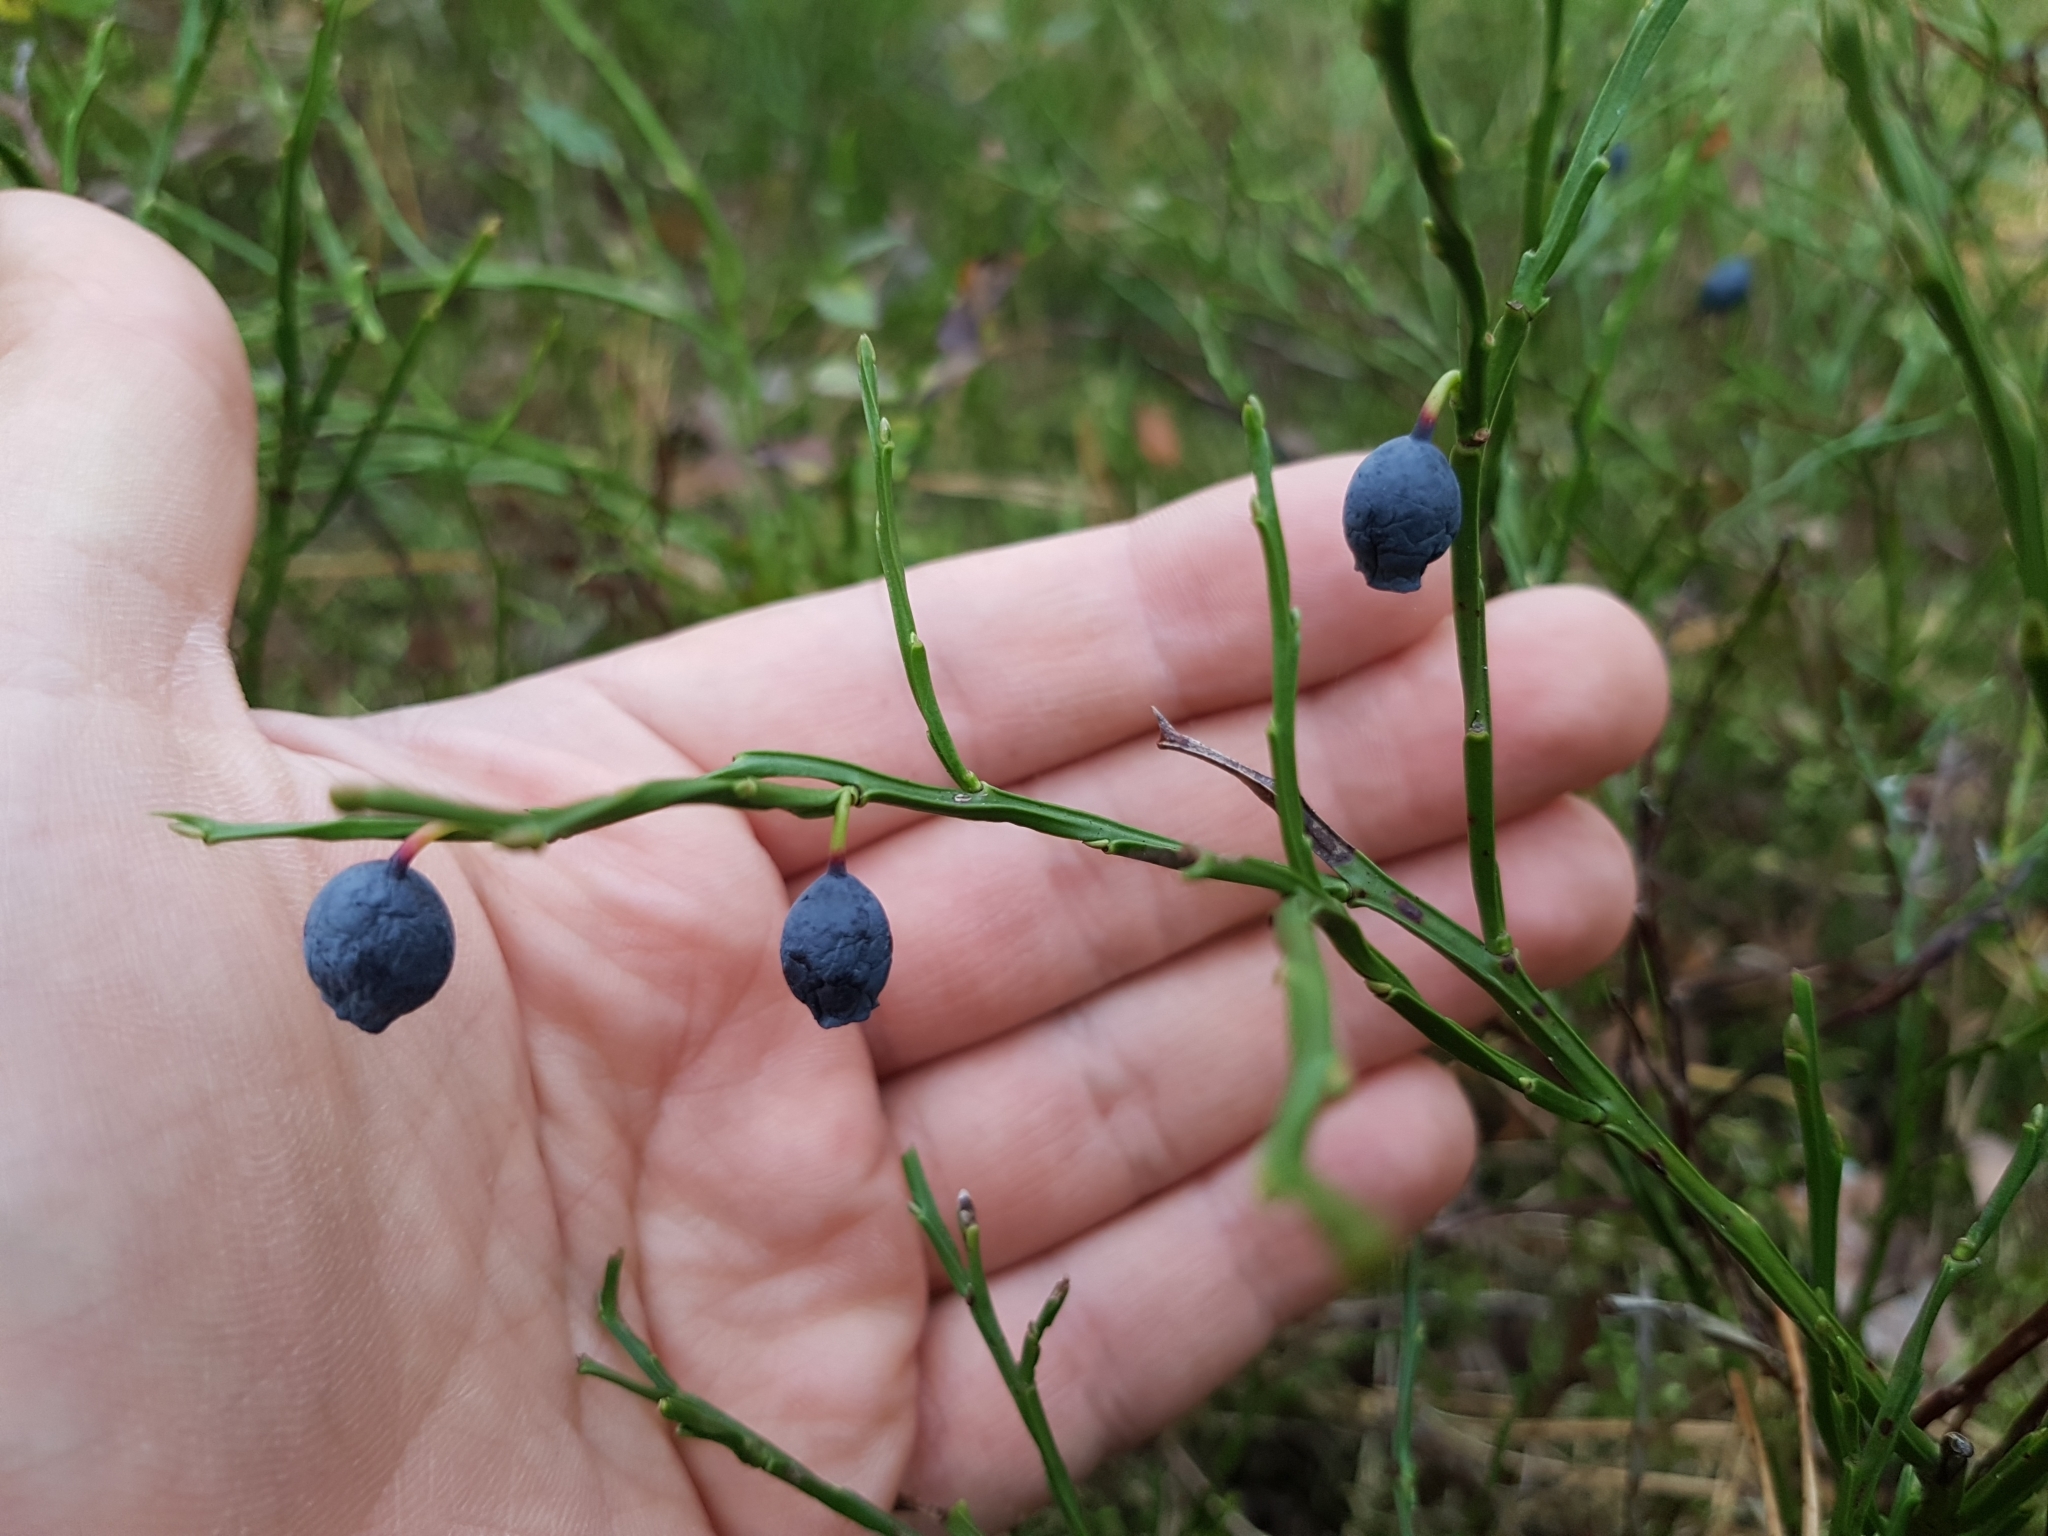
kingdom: Plantae
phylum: Tracheophyta
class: Magnoliopsida
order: Ericales
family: Ericaceae
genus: Vaccinium
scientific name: Vaccinium myrtillus
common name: Bilberry
